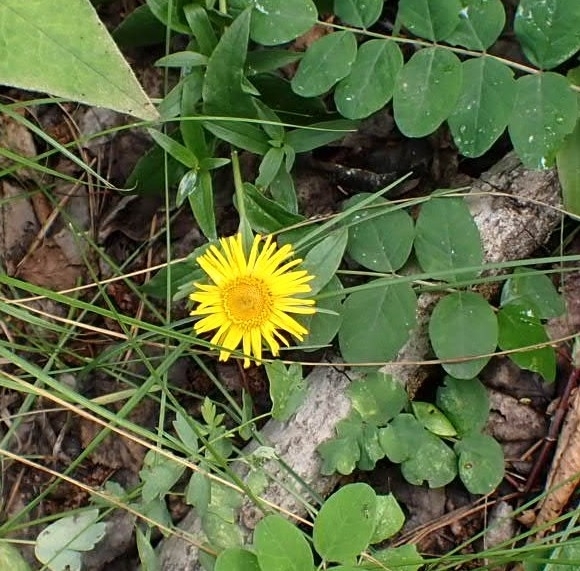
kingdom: Plantae
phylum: Tracheophyta
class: Magnoliopsida
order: Asterales
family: Asteraceae
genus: Pentanema
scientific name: Pentanema salicinum
